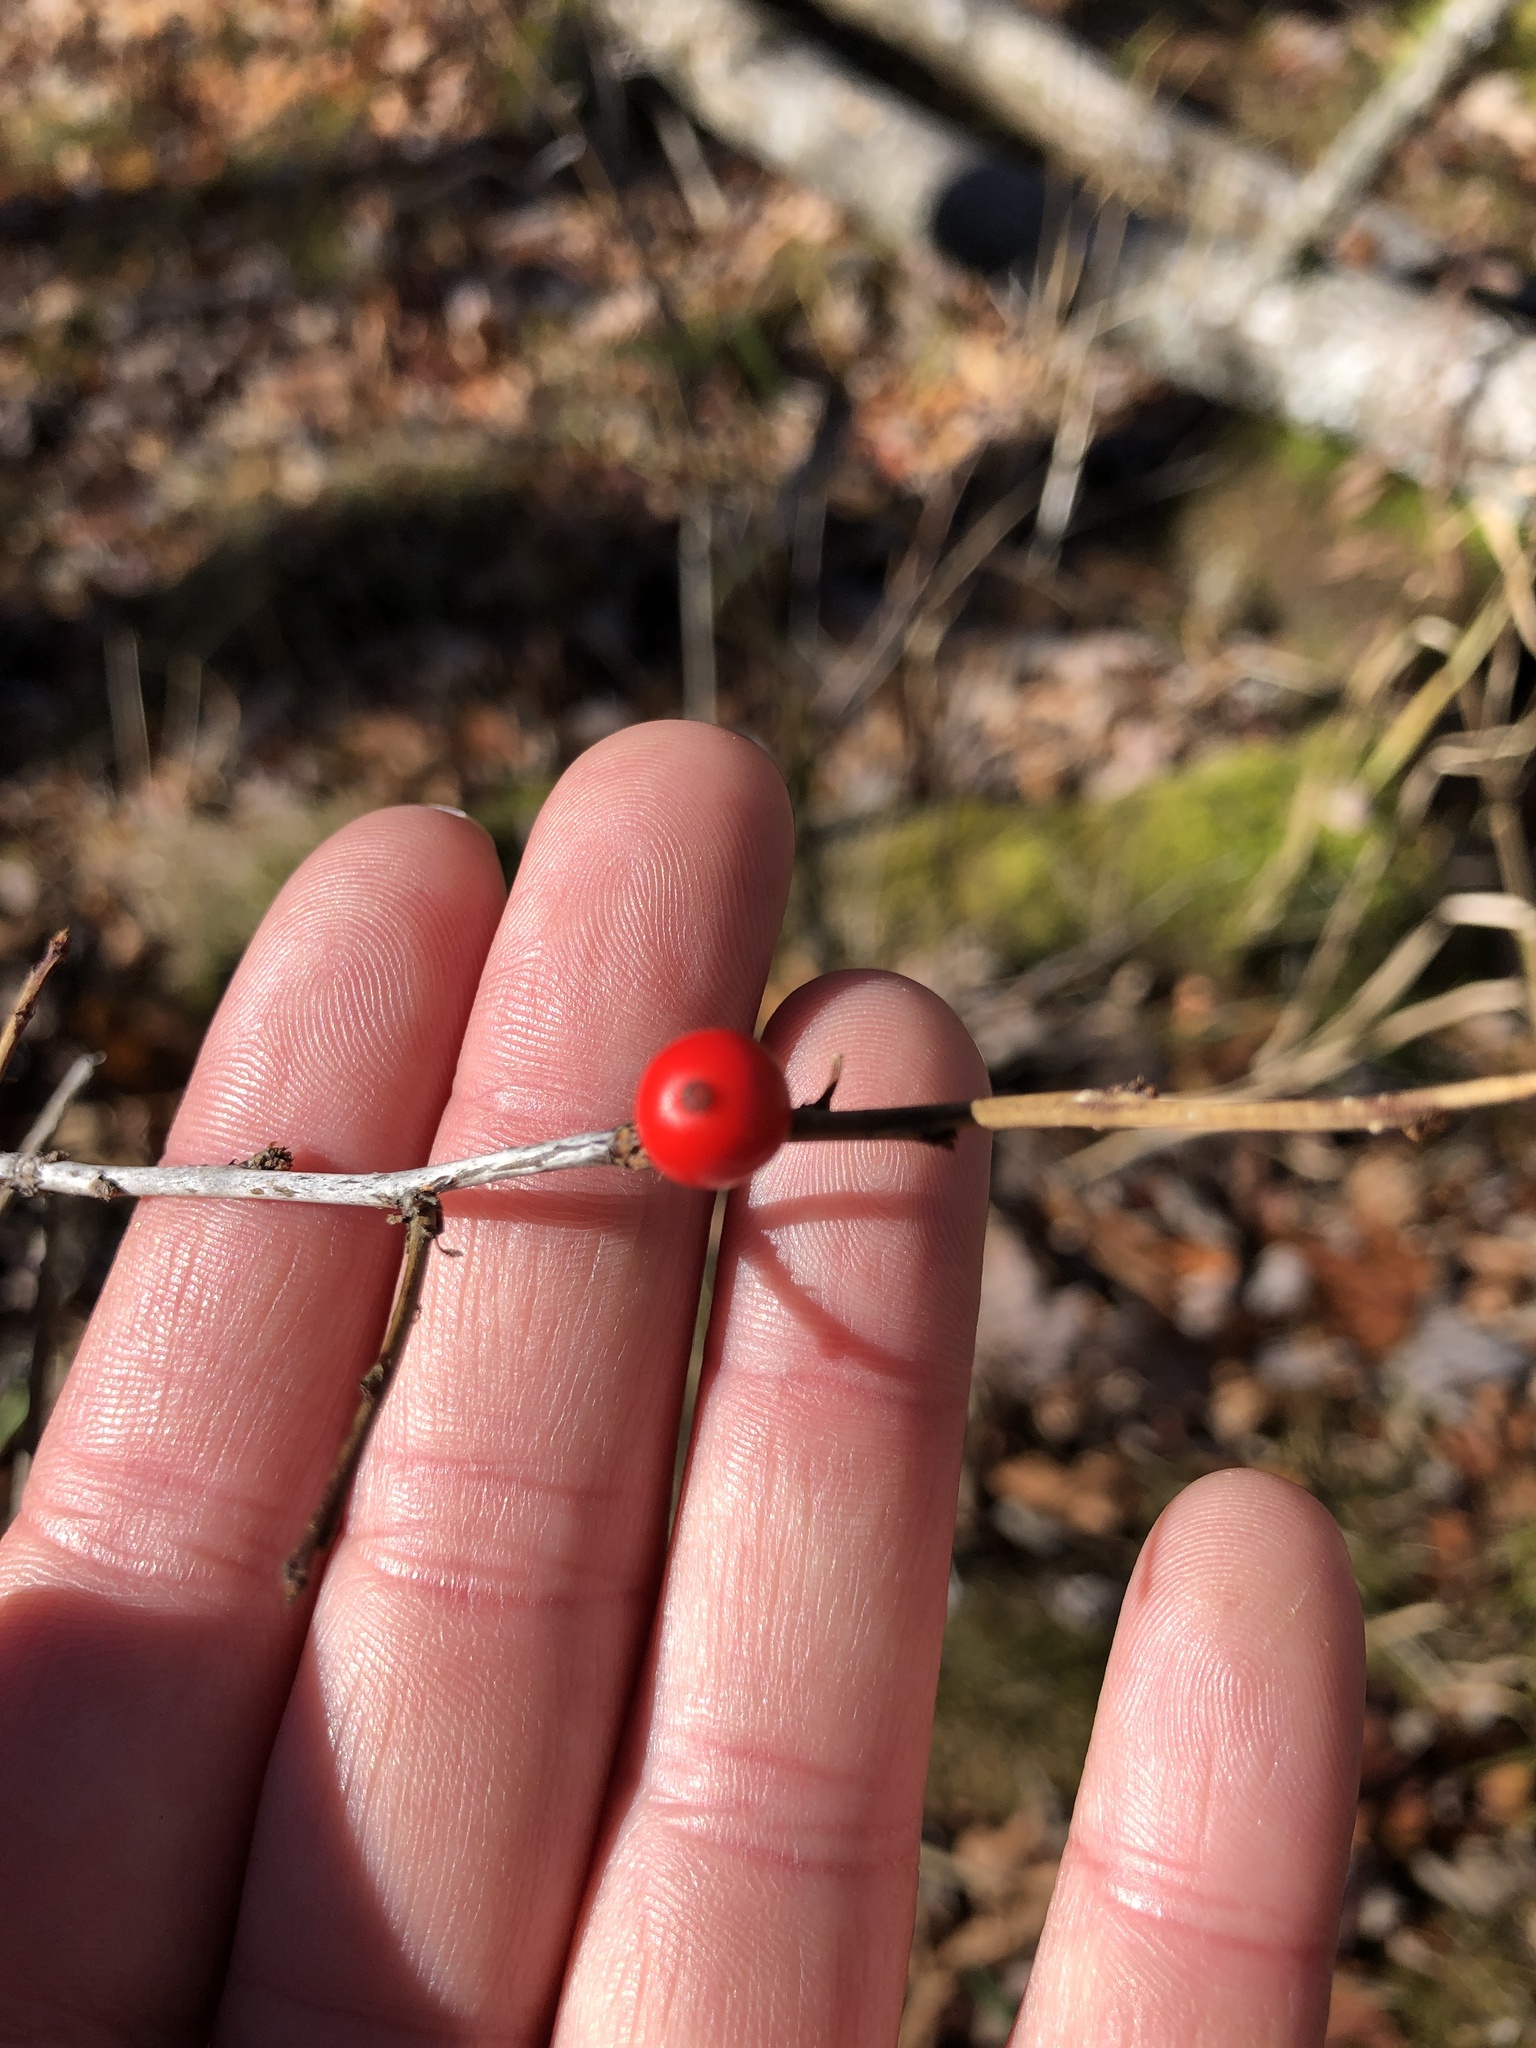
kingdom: Plantae
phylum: Tracheophyta
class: Magnoliopsida
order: Aquifoliales
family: Aquifoliaceae
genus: Ilex
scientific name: Ilex verticillata
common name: Virginia winterberry
